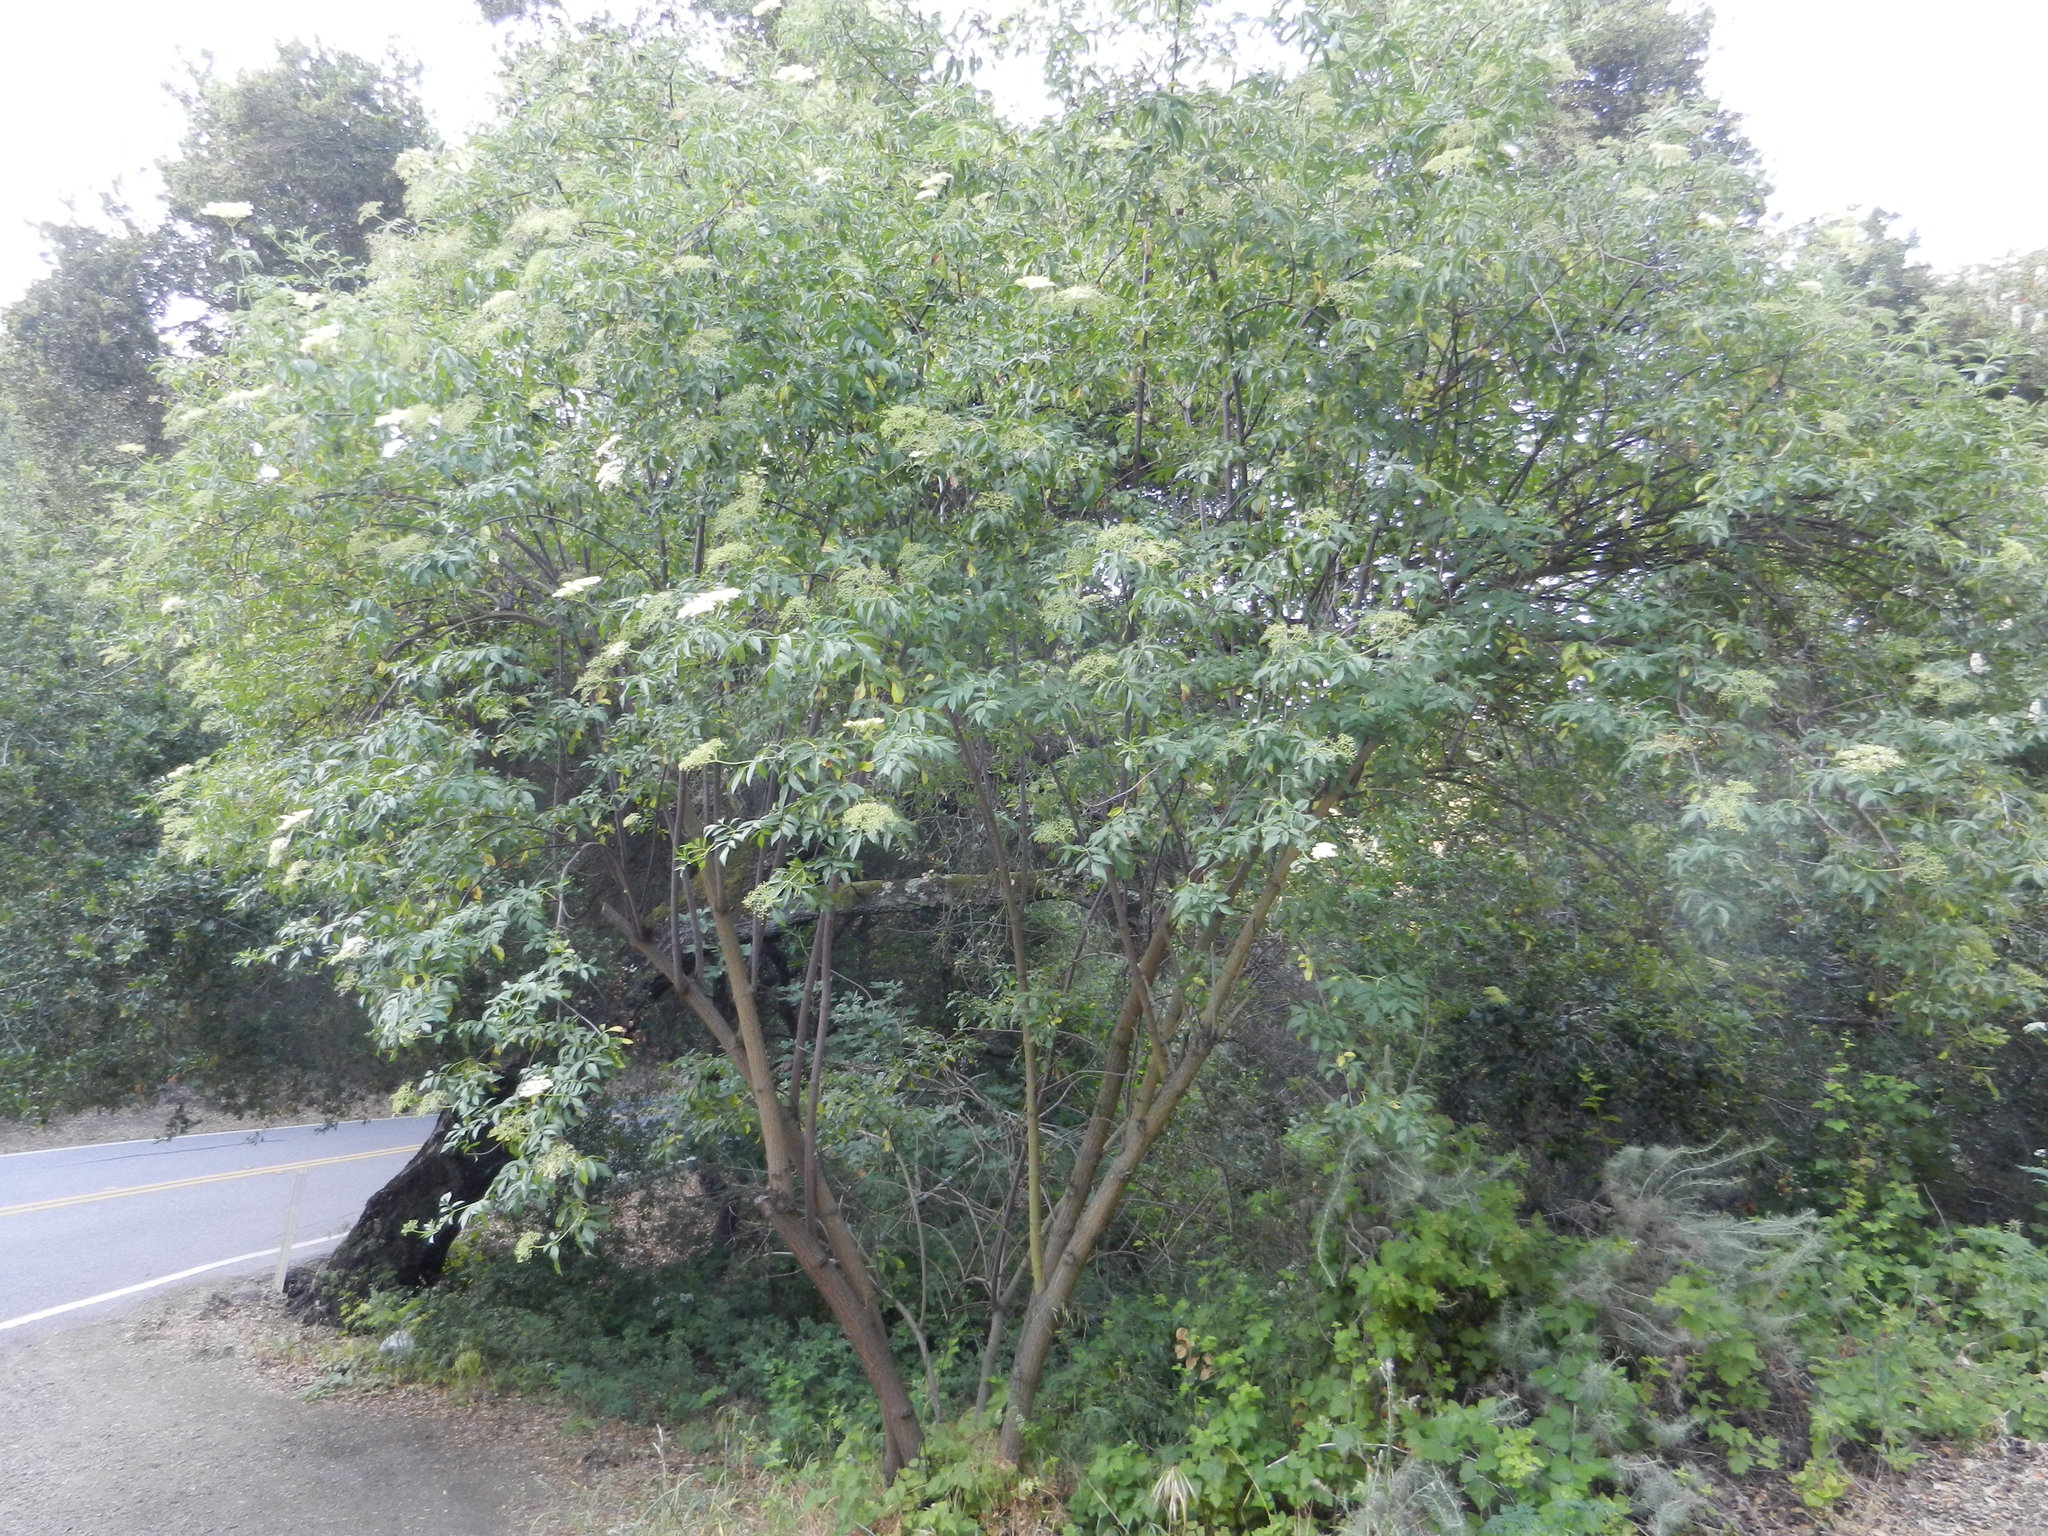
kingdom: Plantae
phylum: Tracheophyta
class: Magnoliopsida
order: Dipsacales
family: Viburnaceae
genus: Sambucus
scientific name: Sambucus cerulea
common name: Blue elder
